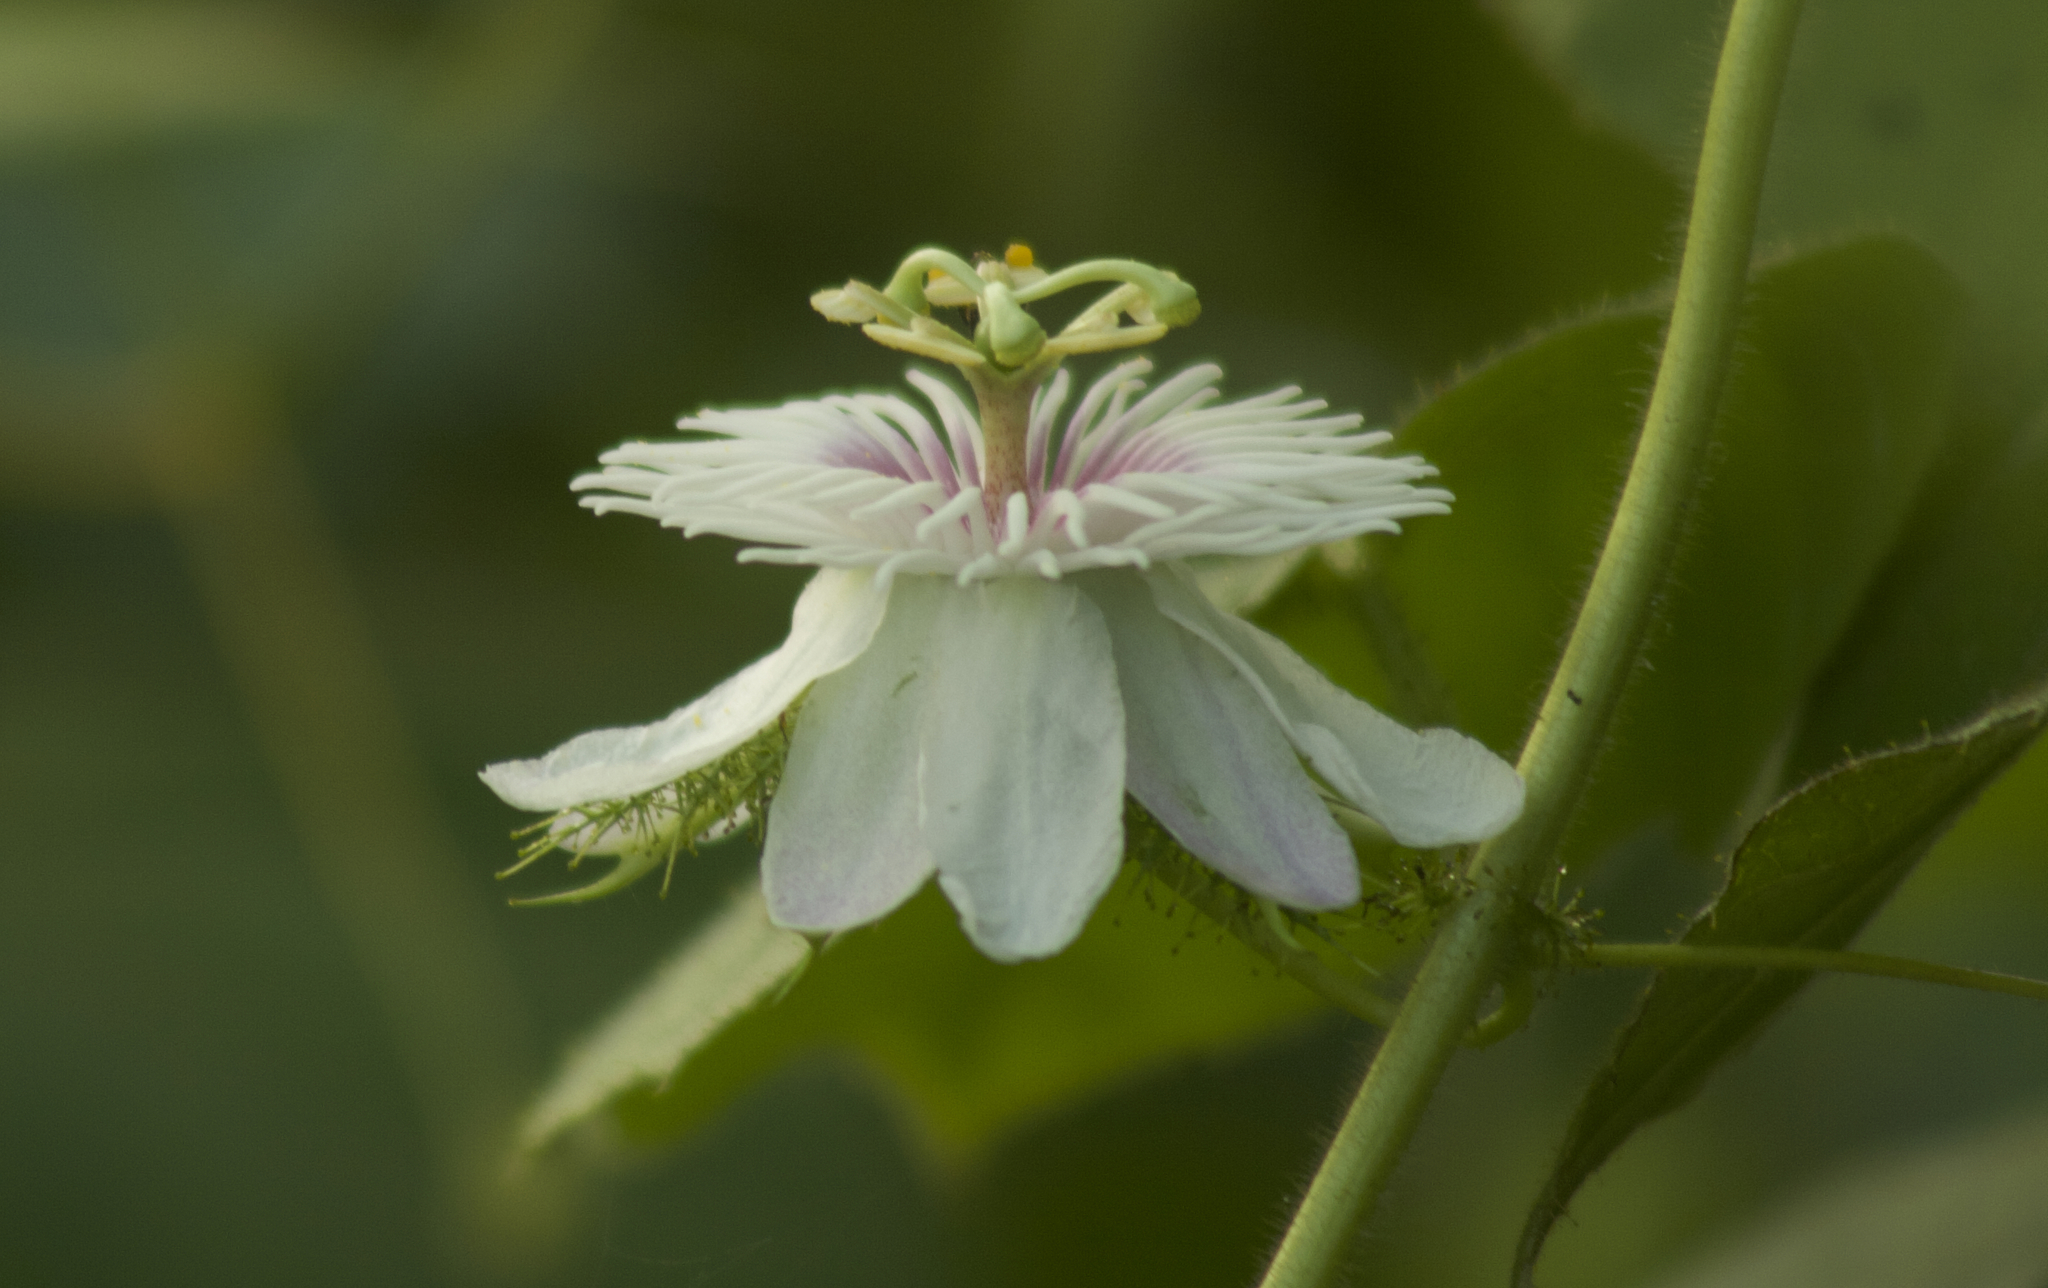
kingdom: Plantae
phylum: Tracheophyta
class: Magnoliopsida
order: Malpighiales
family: Passifloraceae
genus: Passiflora
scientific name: Passiflora foetida
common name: Fetid passionflower
